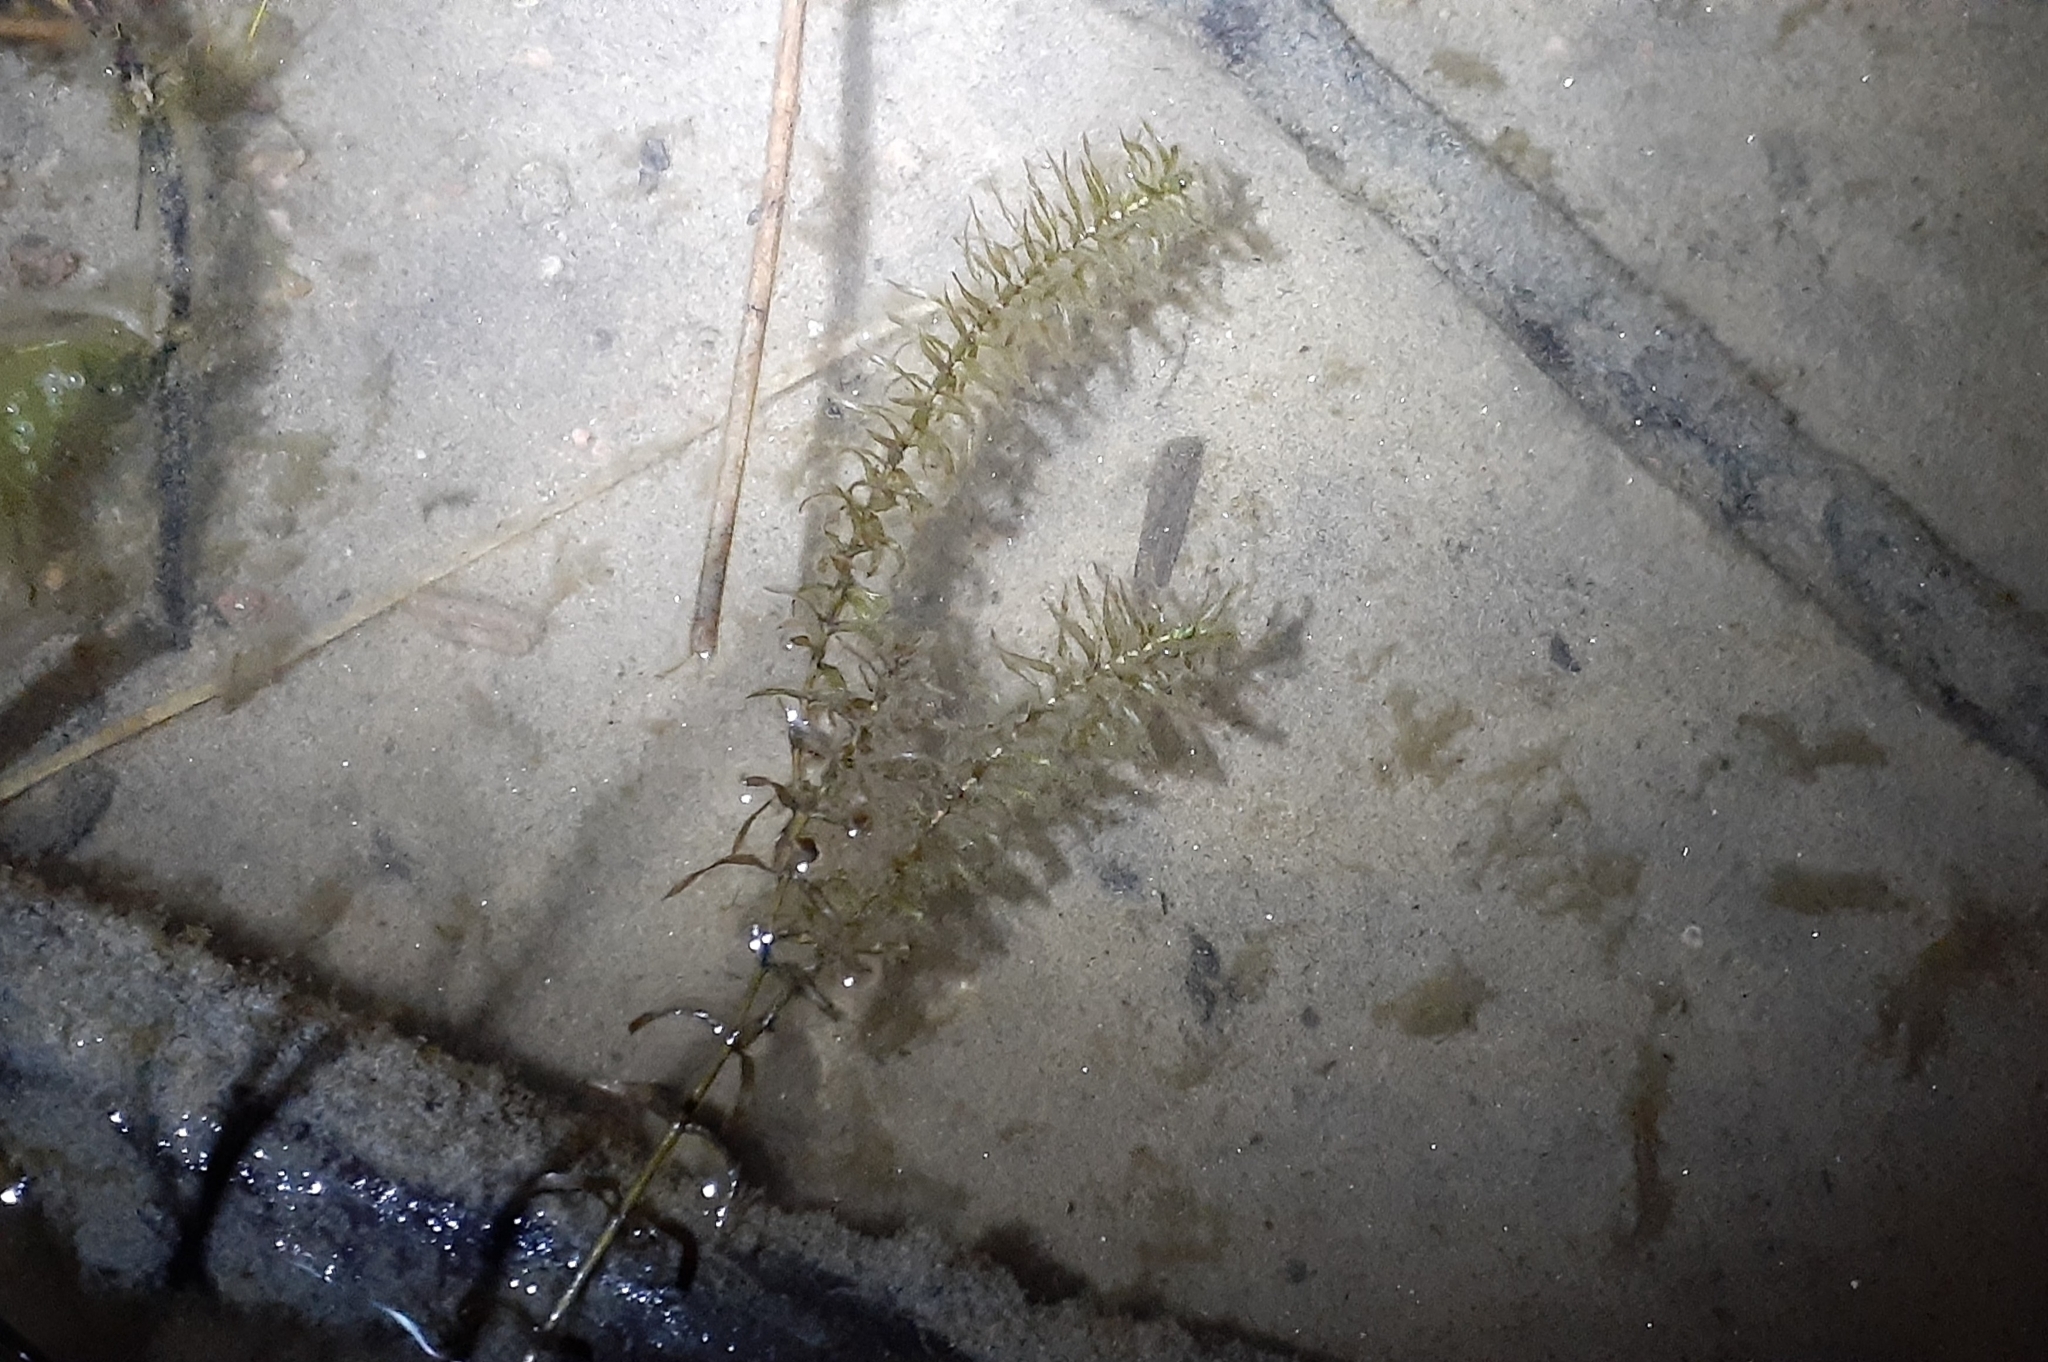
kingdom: Plantae
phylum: Tracheophyta
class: Liliopsida
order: Alismatales
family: Hydrocharitaceae
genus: Elodea
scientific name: Elodea canadensis
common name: Canadian waterweed
